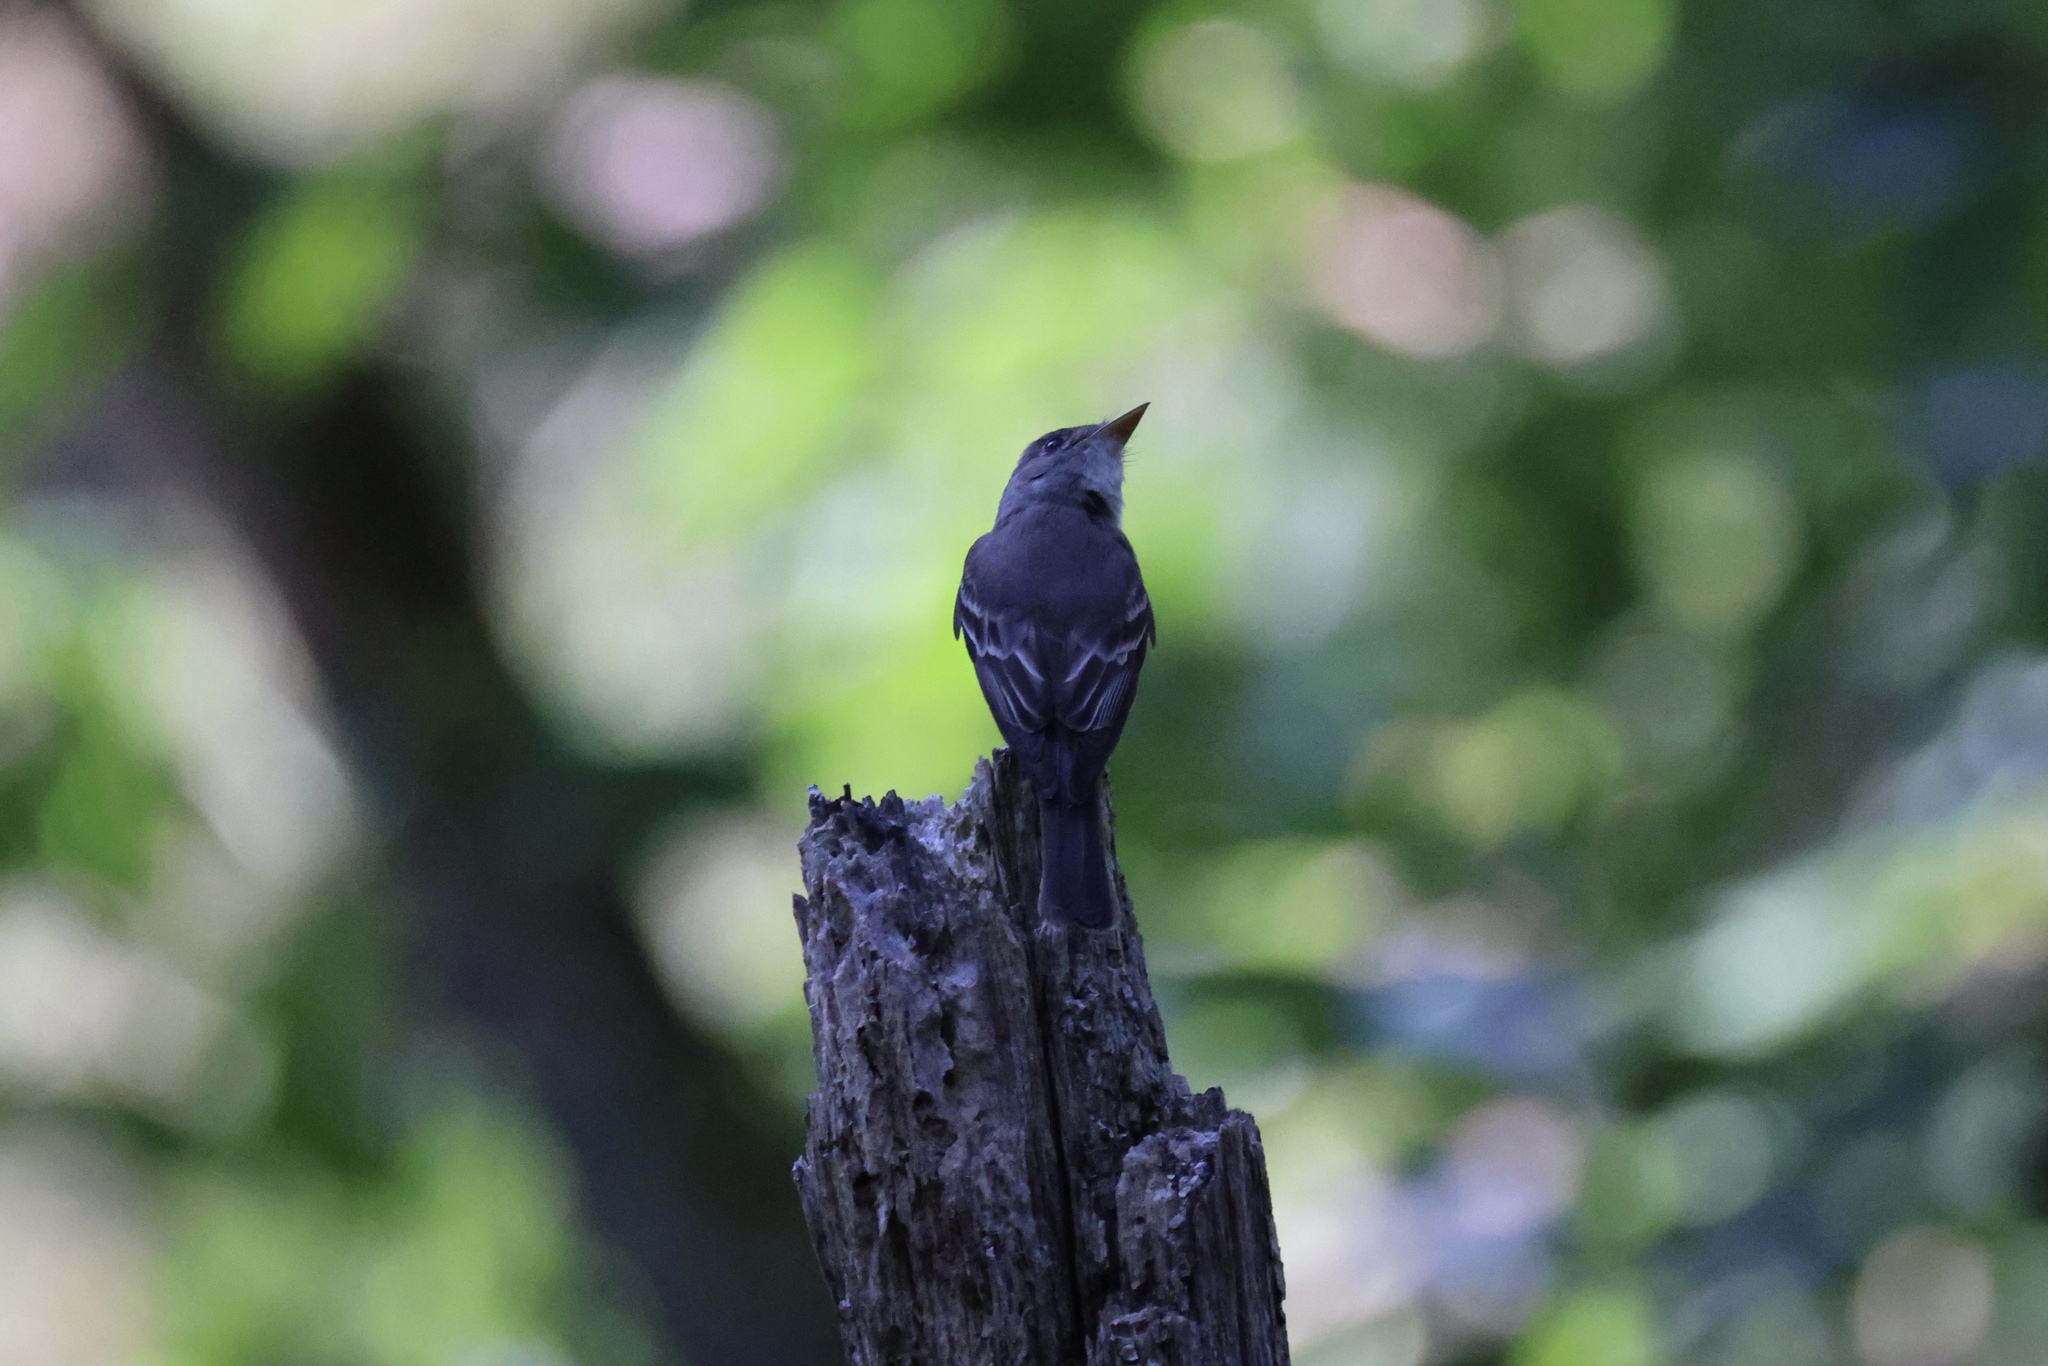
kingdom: Animalia
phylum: Chordata
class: Aves
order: Passeriformes
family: Tyrannidae
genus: Contopus
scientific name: Contopus virens
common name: Eastern wood-pewee
